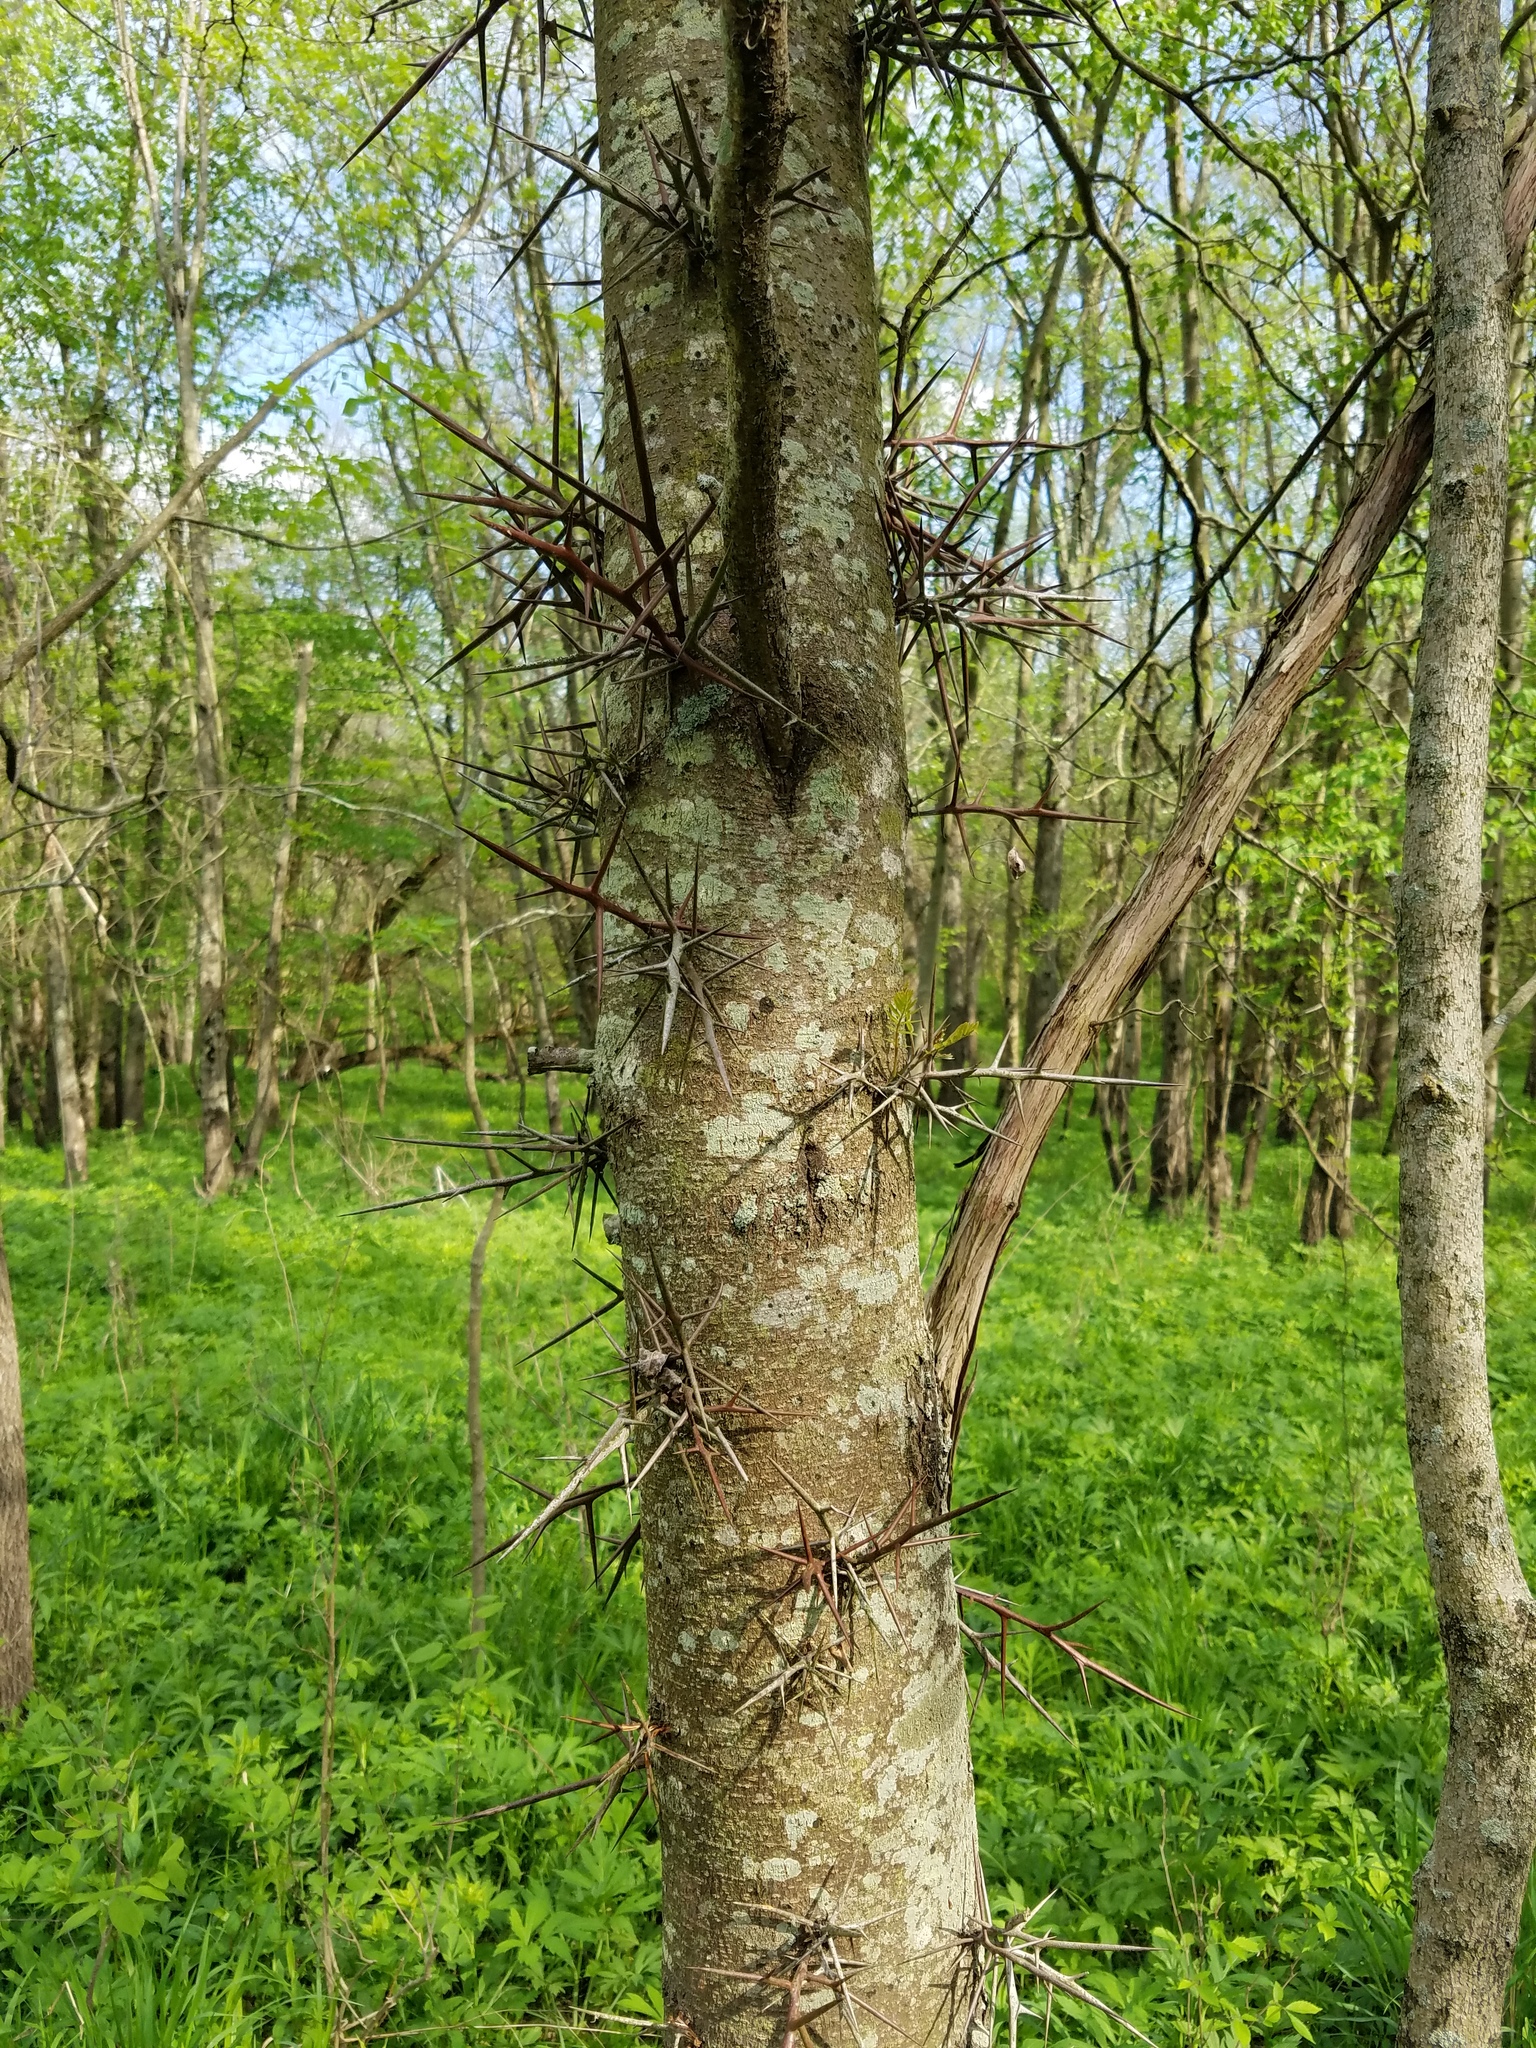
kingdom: Plantae
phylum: Tracheophyta
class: Magnoliopsida
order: Fabales
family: Fabaceae
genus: Gleditsia
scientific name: Gleditsia triacanthos
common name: Common honeylocust
